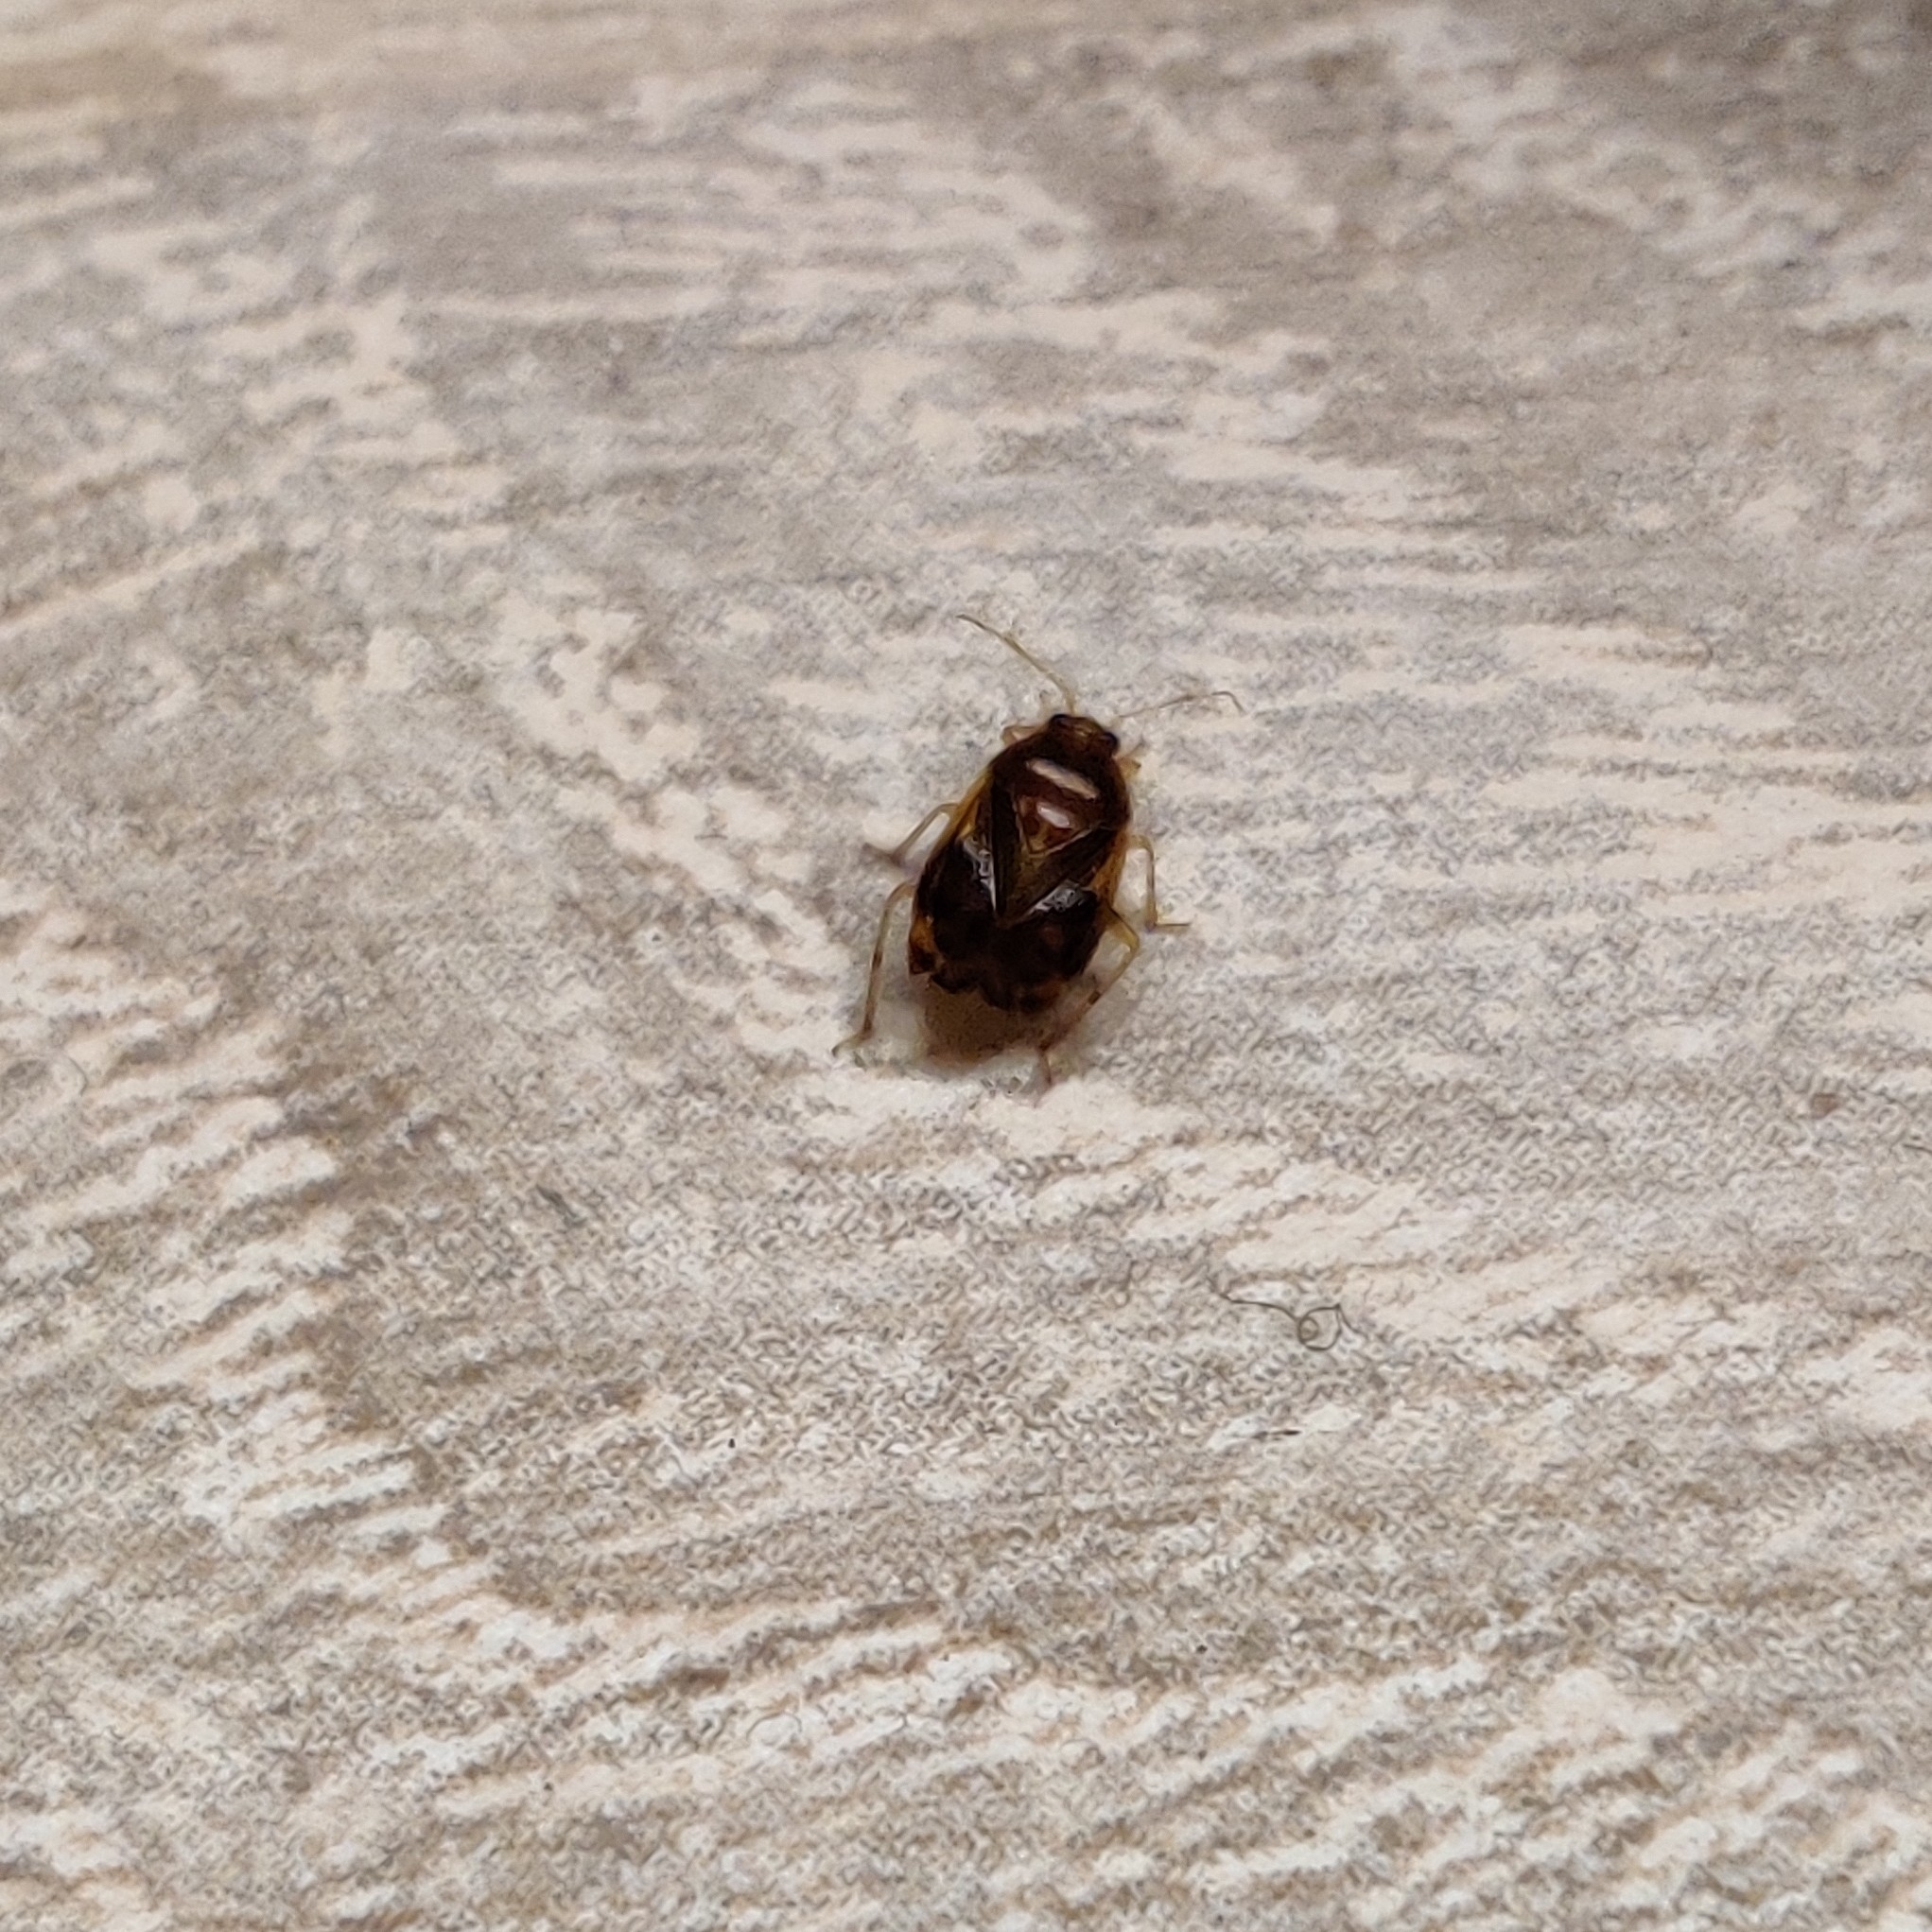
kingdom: Animalia
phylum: Arthropoda
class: Insecta
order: Hemiptera
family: Miridae
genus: Deraeocoris
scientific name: Deraeocoris lutescens
